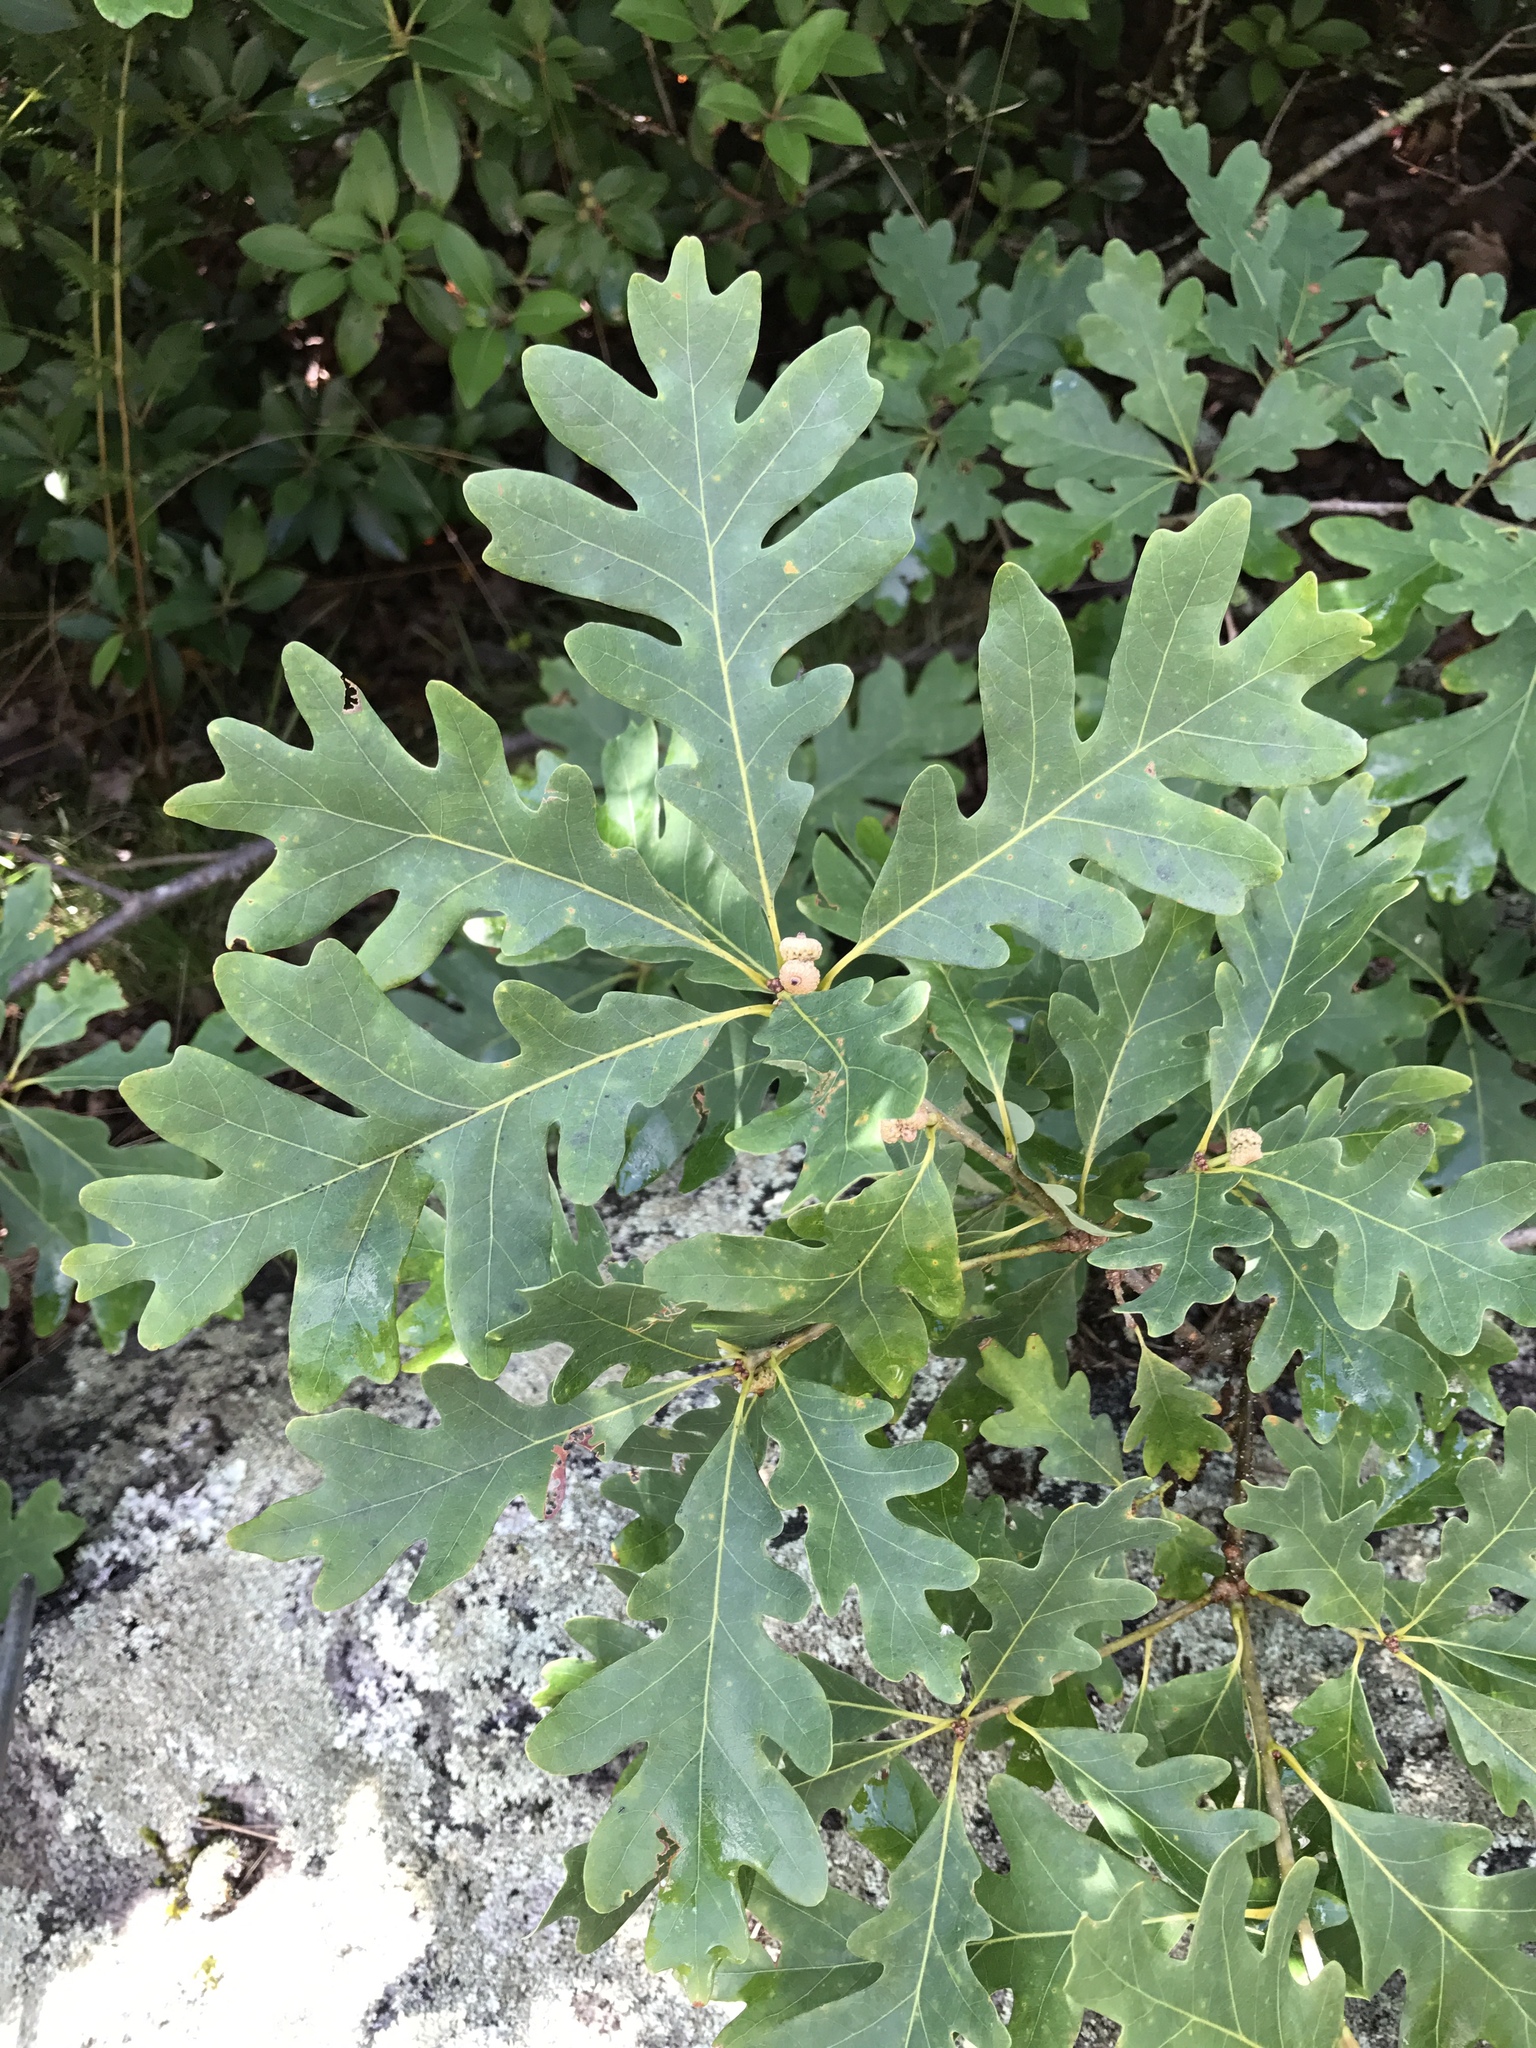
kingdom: Plantae
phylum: Tracheophyta
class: Magnoliopsida
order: Fagales
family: Fagaceae
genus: Quercus
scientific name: Quercus alba
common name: White oak
